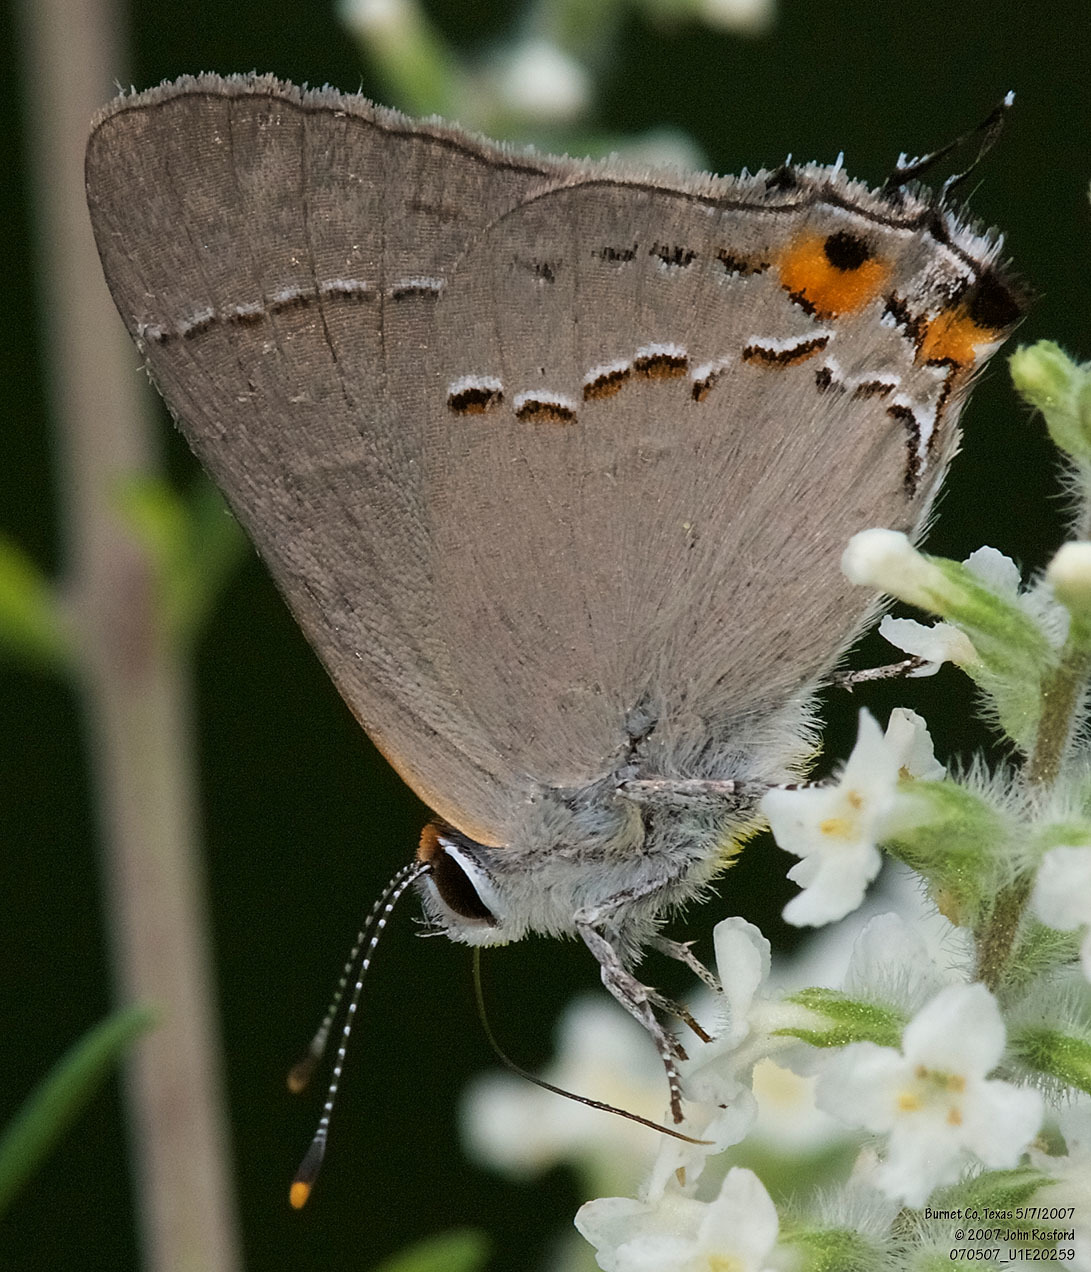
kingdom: Animalia
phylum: Arthropoda
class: Insecta
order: Lepidoptera
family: Lycaenidae
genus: Strymon
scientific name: Strymon melinus
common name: Gray hairstreak
